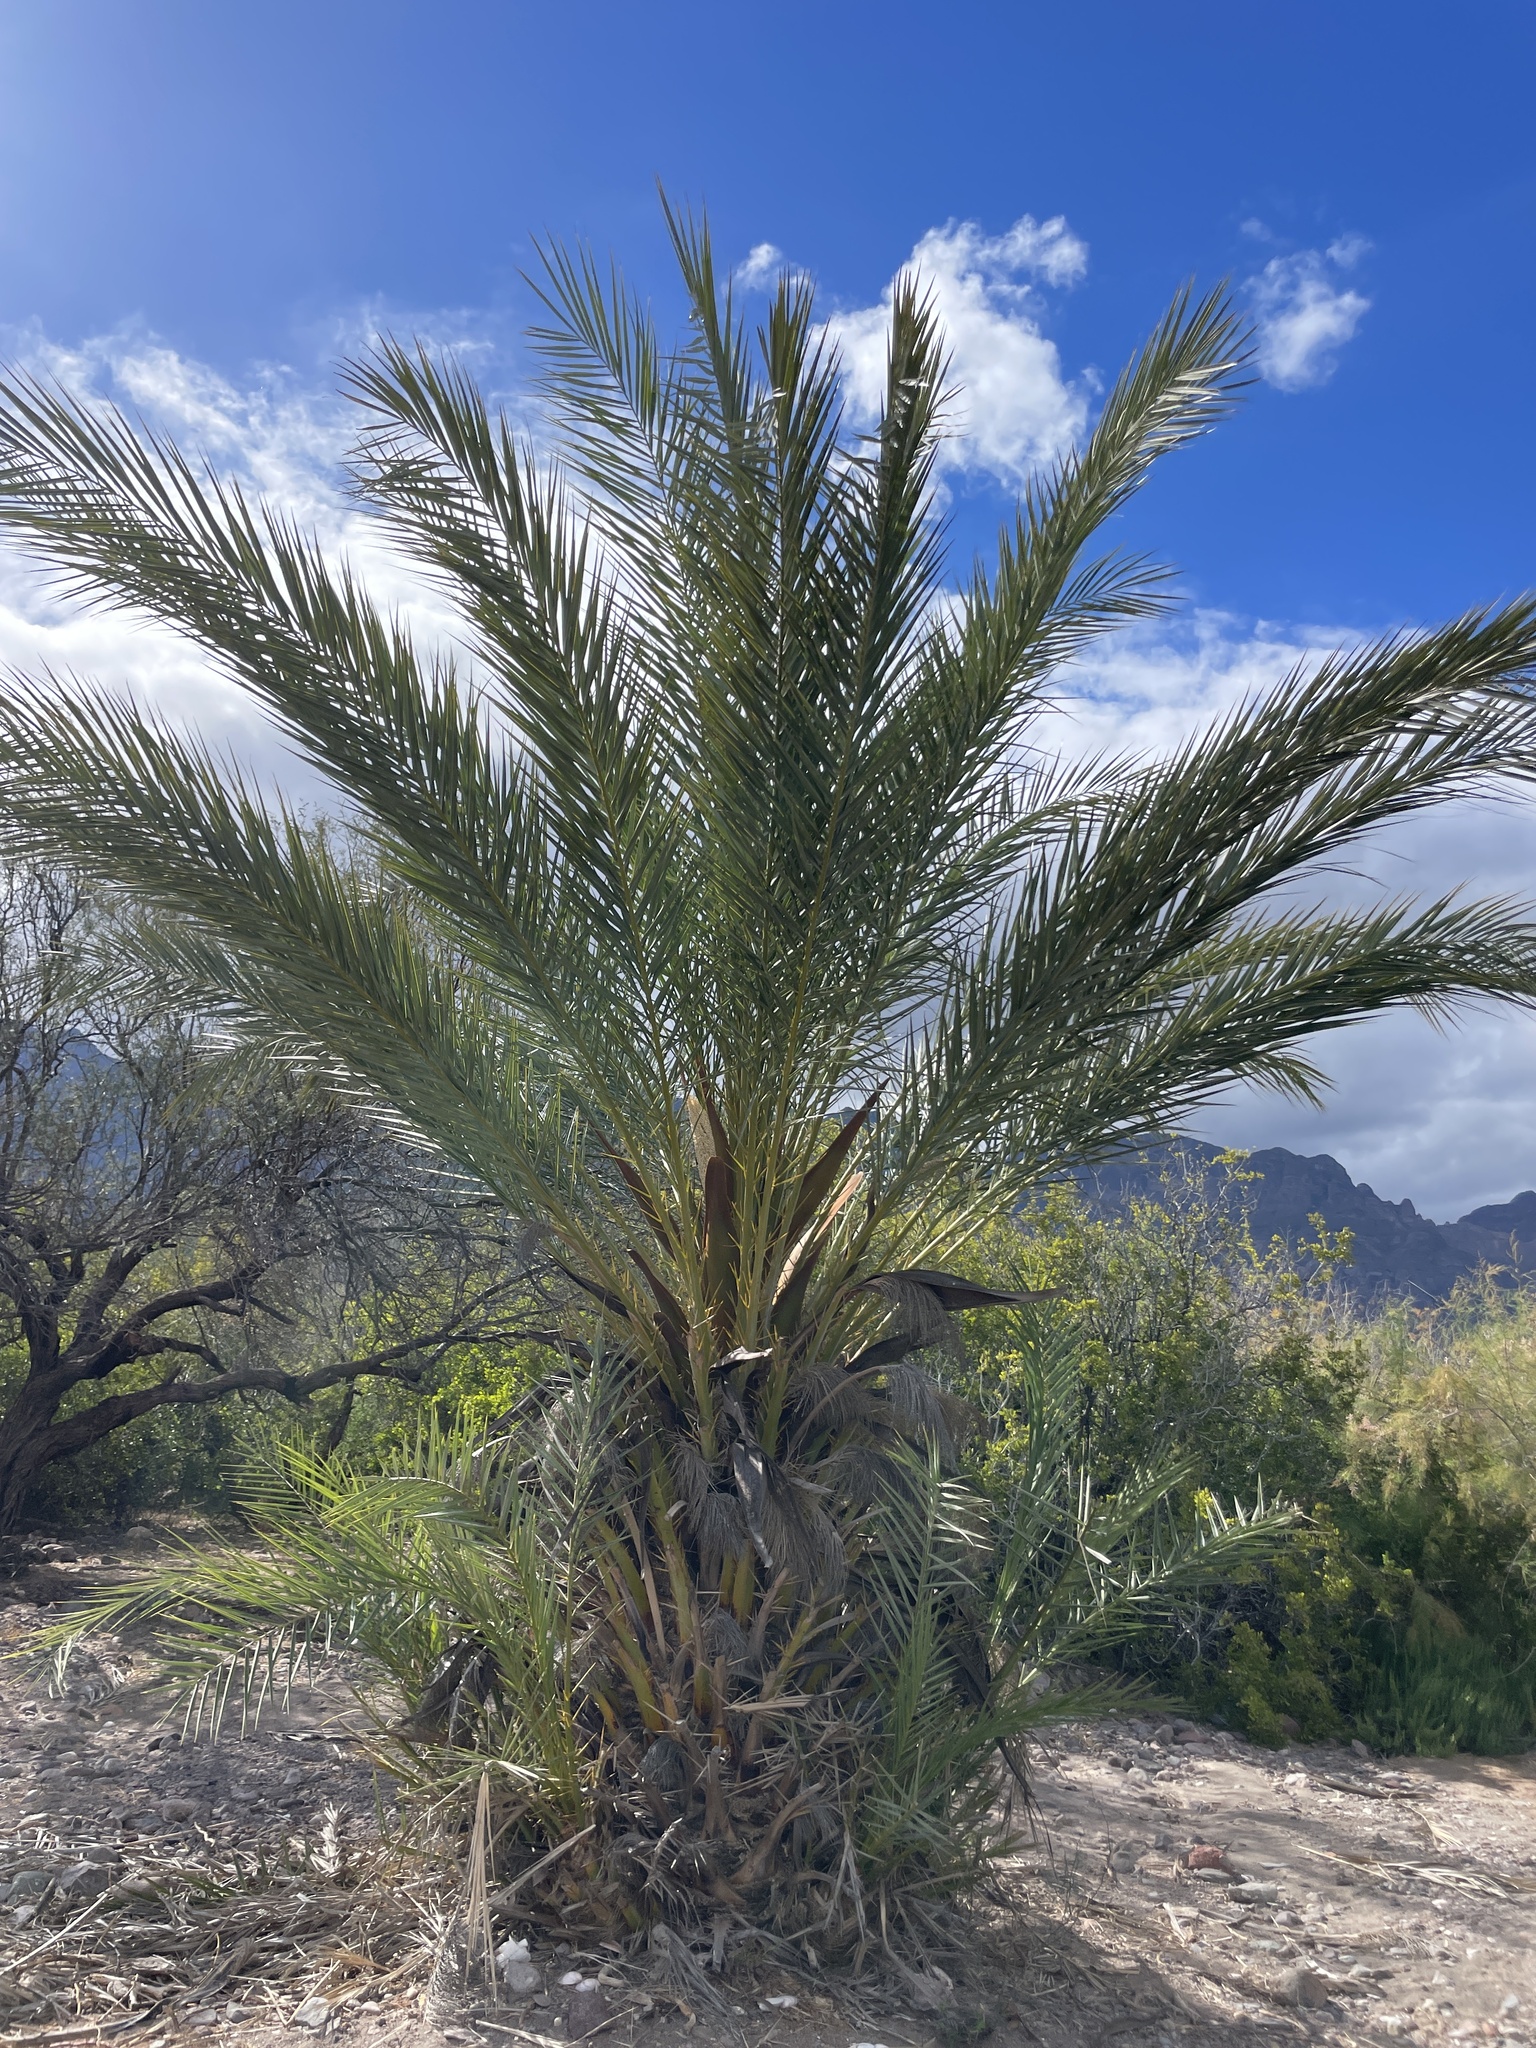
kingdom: Plantae
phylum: Tracheophyta
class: Liliopsida
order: Arecales
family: Arecaceae
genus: Phoenix
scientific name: Phoenix dactylifera
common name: Date palm
